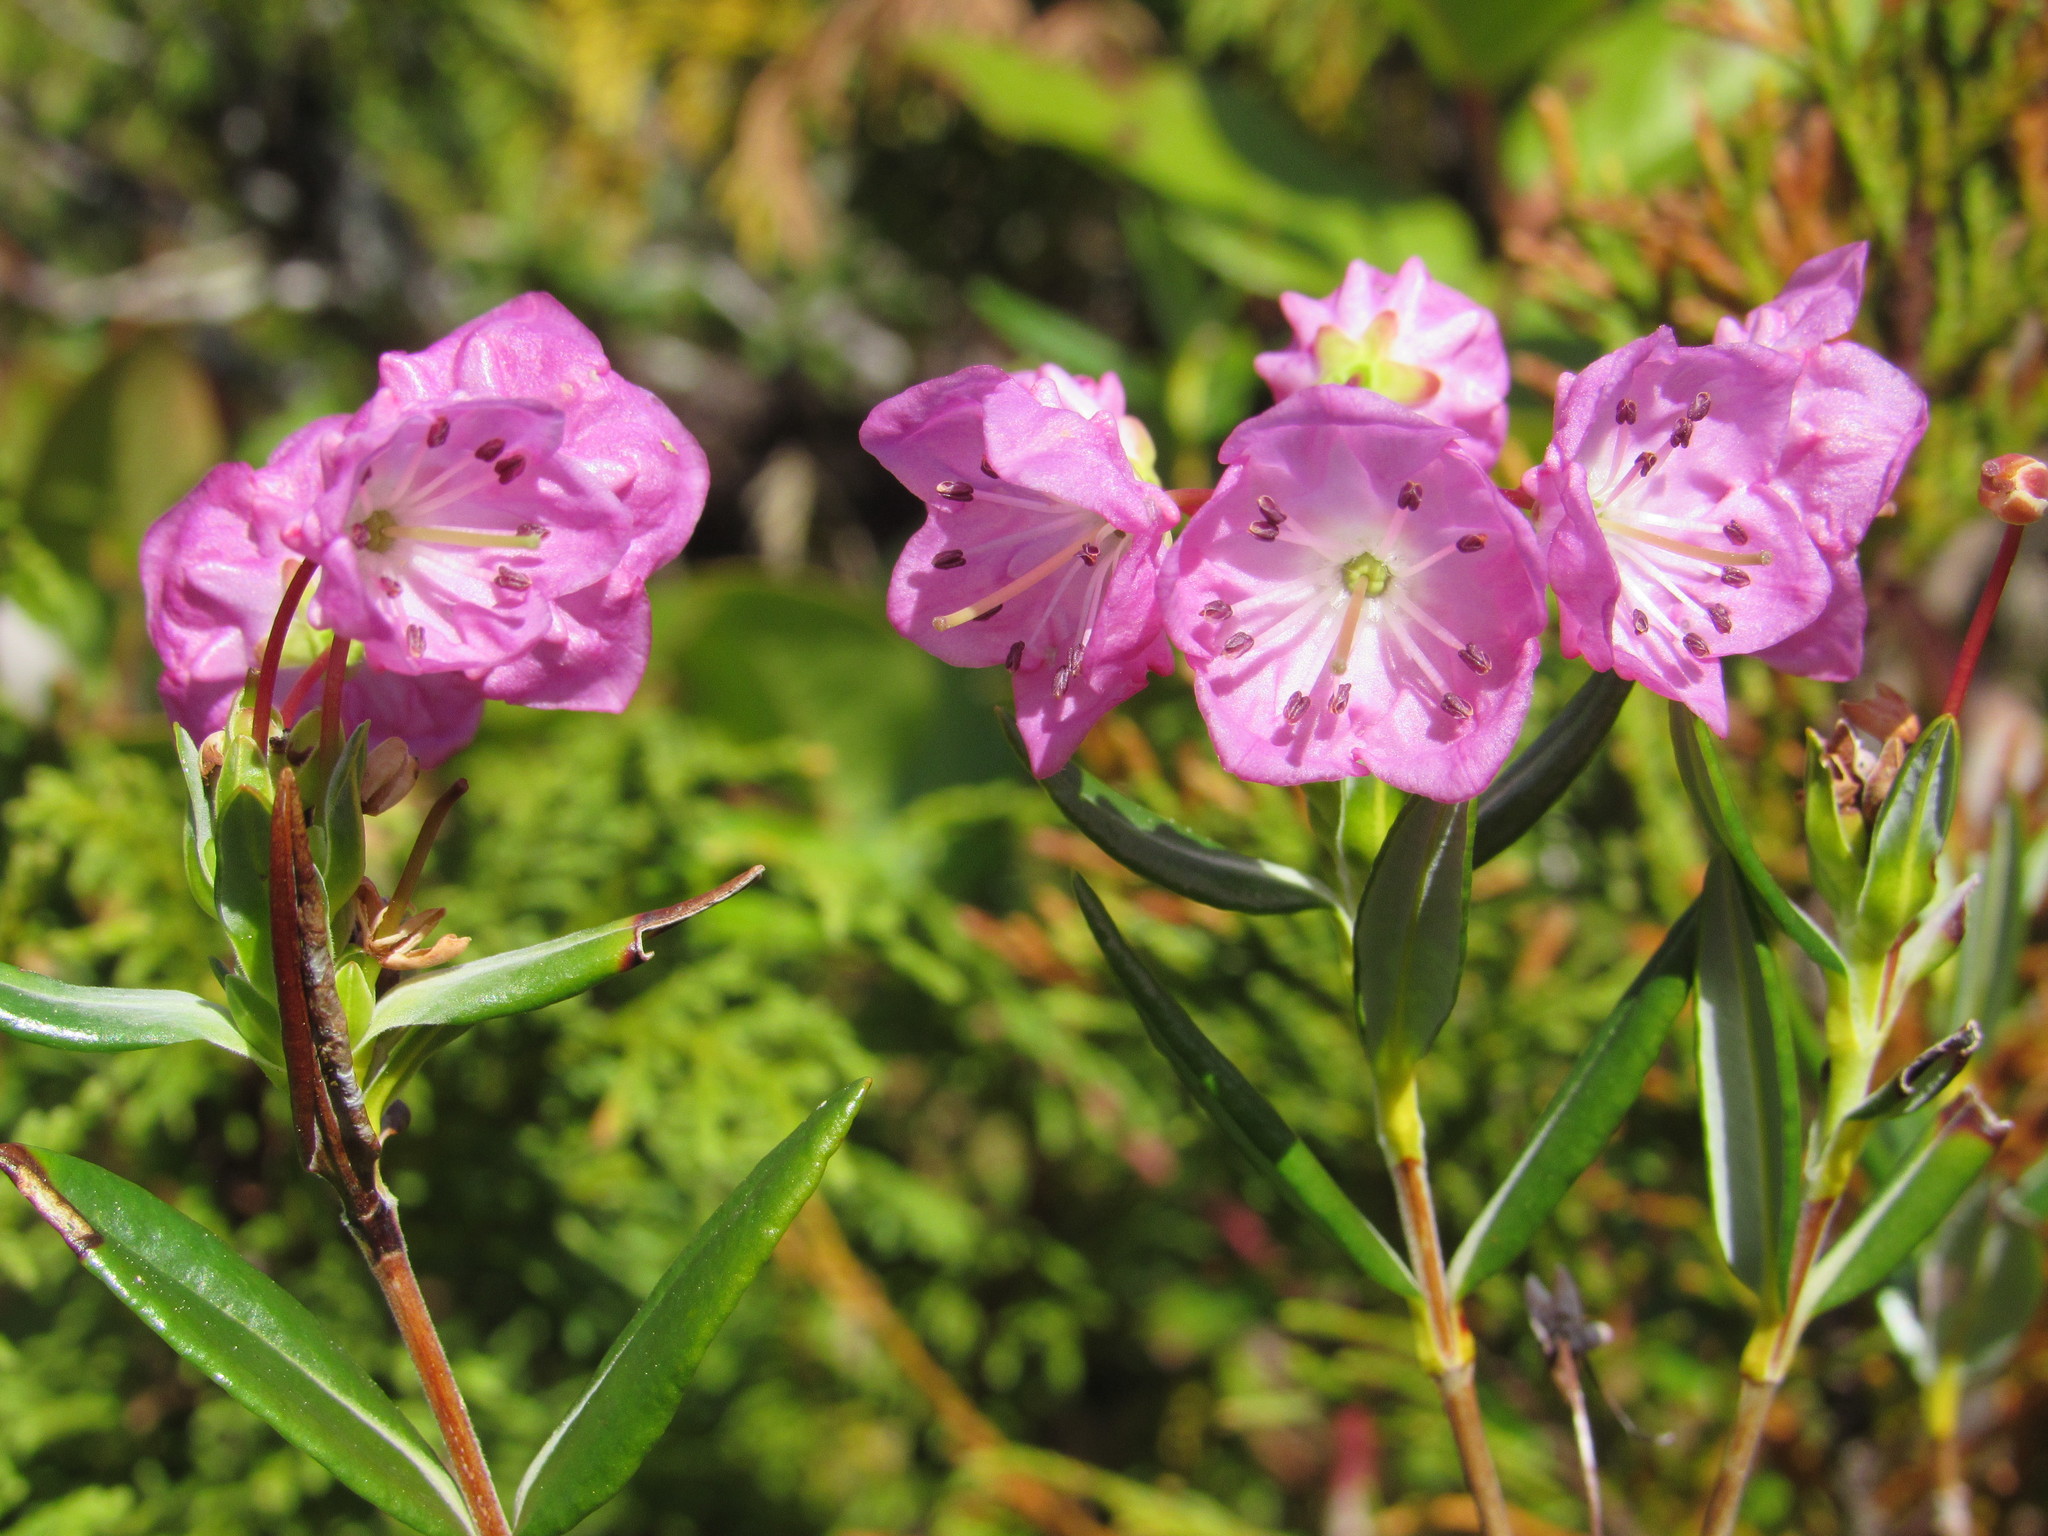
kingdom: Plantae
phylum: Tracheophyta
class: Magnoliopsida
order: Ericales
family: Ericaceae
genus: Kalmia
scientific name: Kalmia microphylla
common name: Alpine bog laurel
